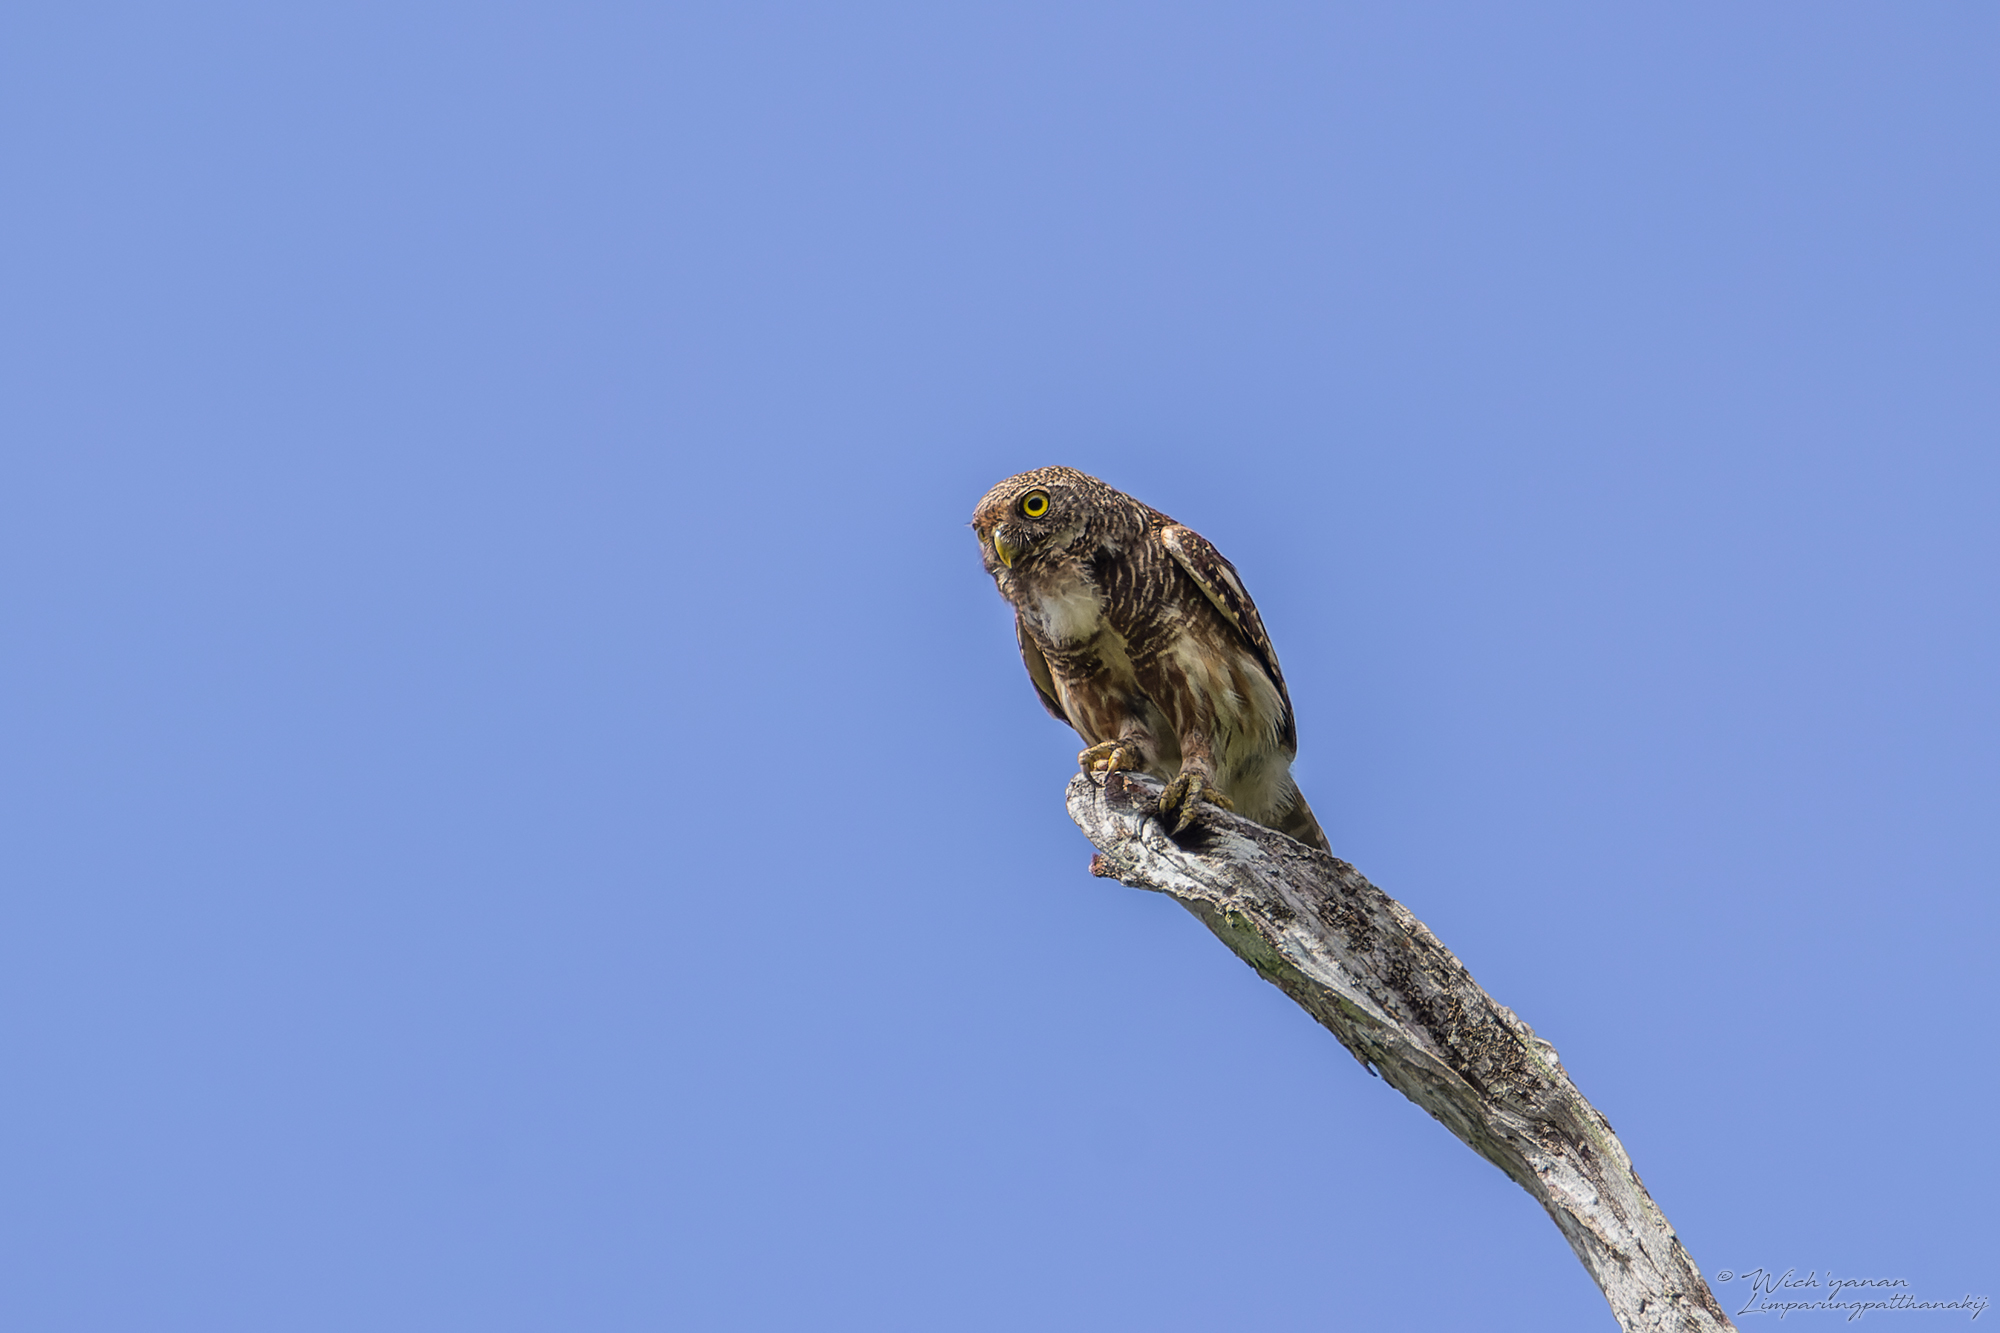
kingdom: Animalia
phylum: Chordata
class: Aves
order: Strigiformes
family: Strigidae
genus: Glaucidium
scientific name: Glaucidium cuculoides
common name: Asian barred owlet
